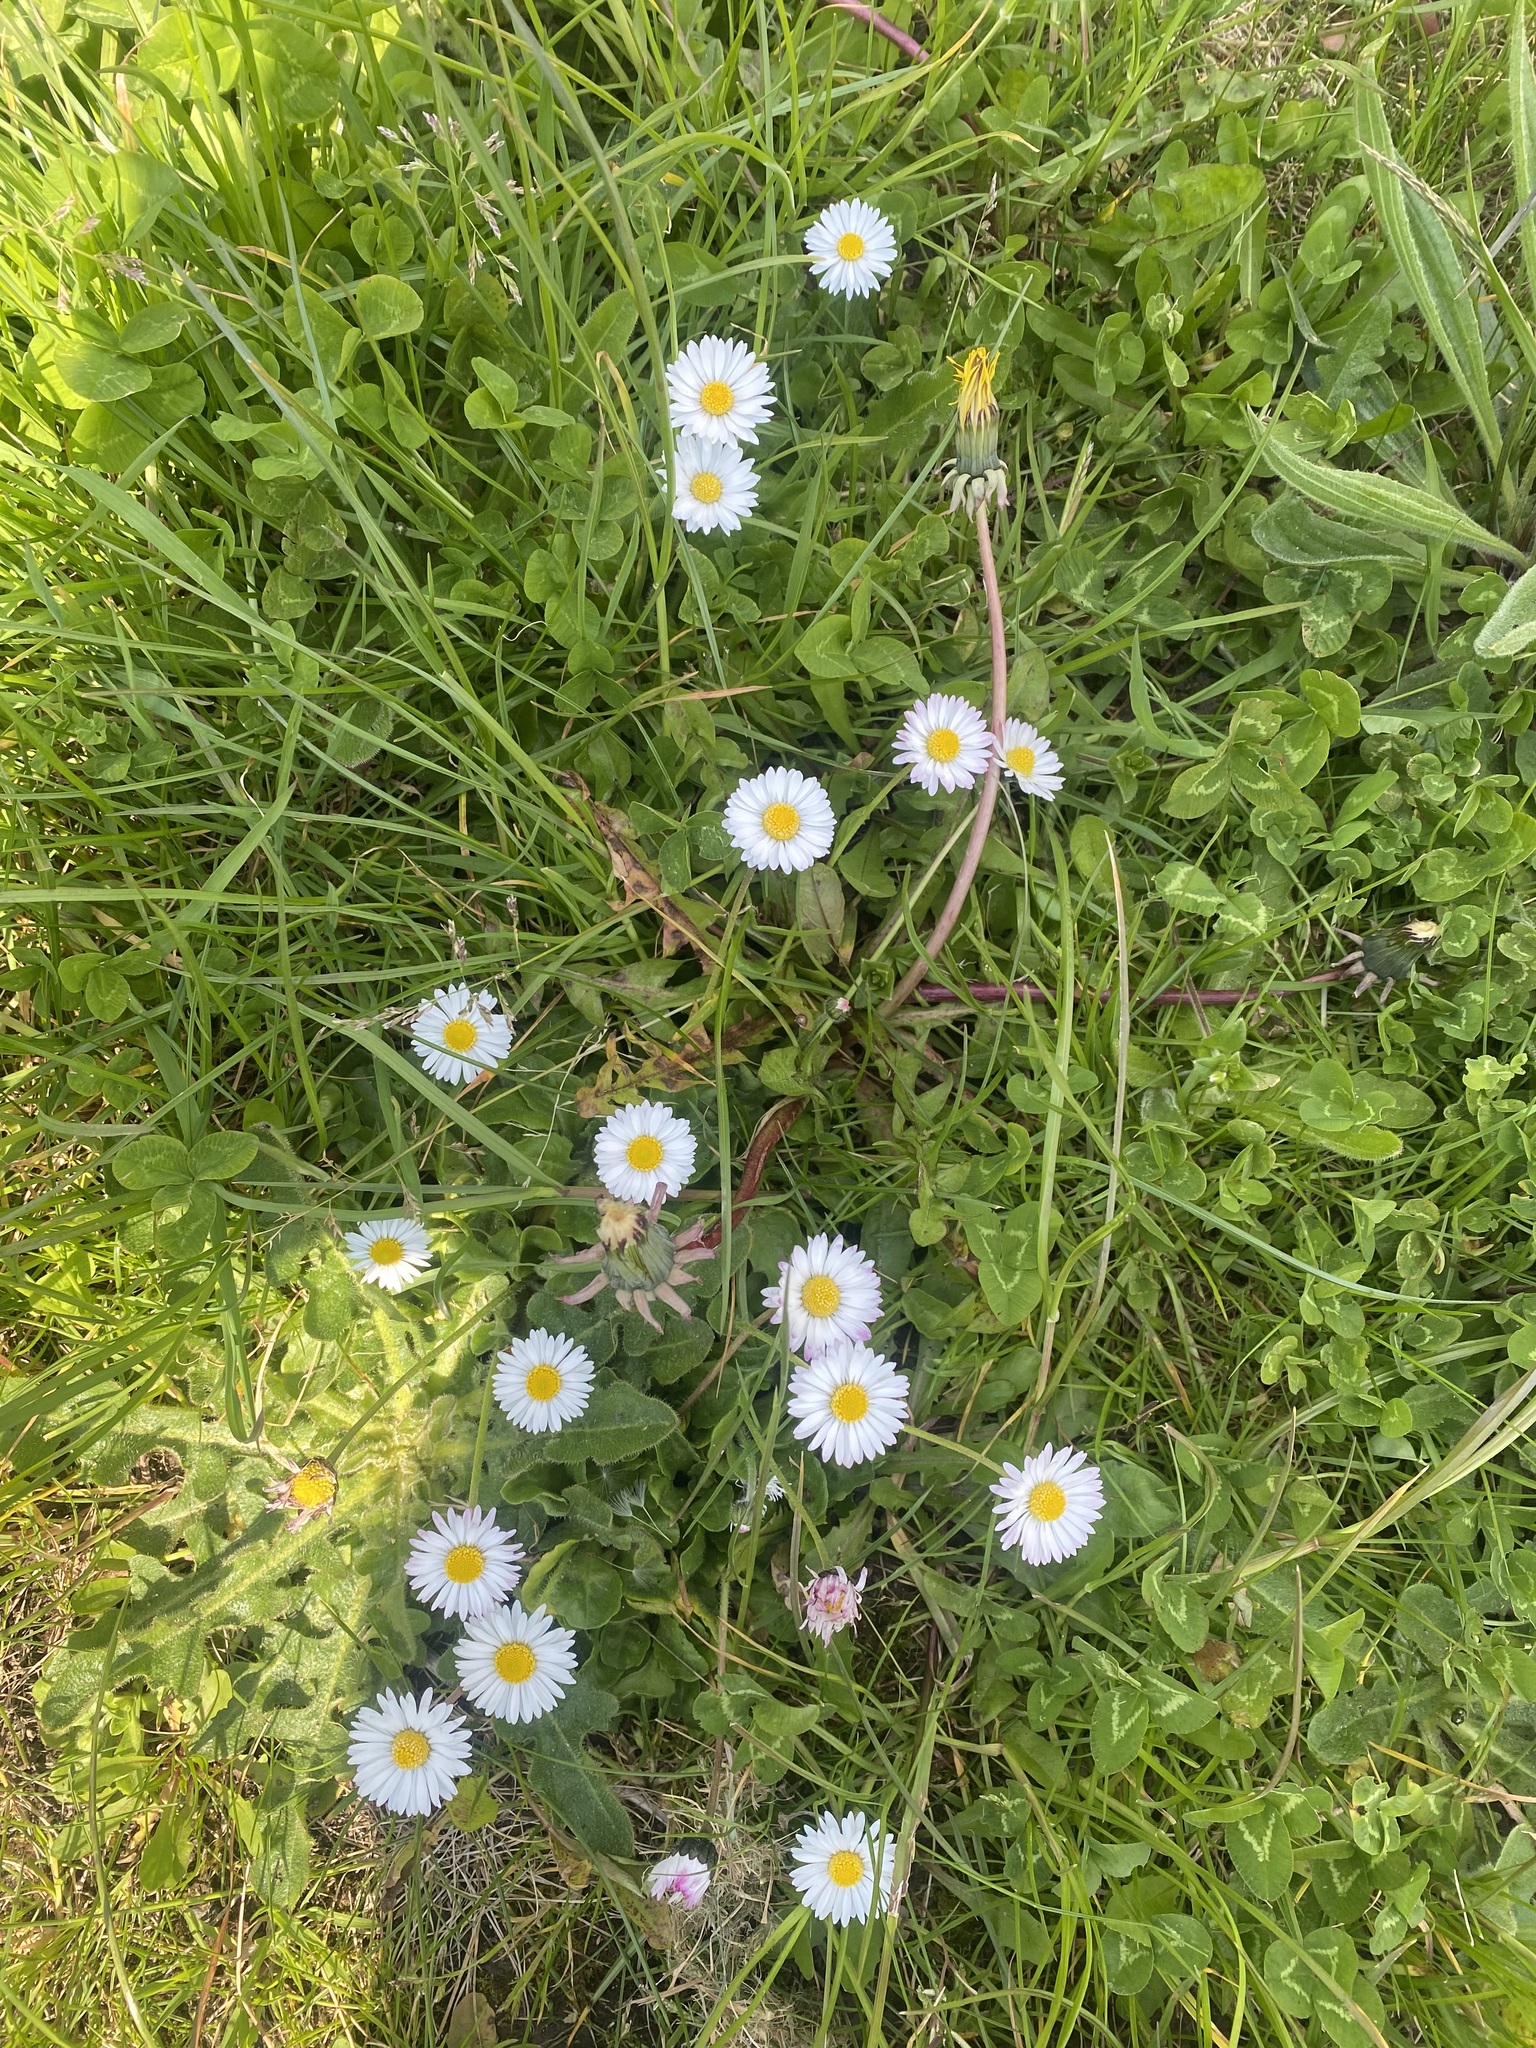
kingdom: Plantae
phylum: Tracheophyta
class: Magnoliopsida
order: Asterales
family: Asteraceae
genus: Bellis
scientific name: Bellis perennis
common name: Lawndaisy
